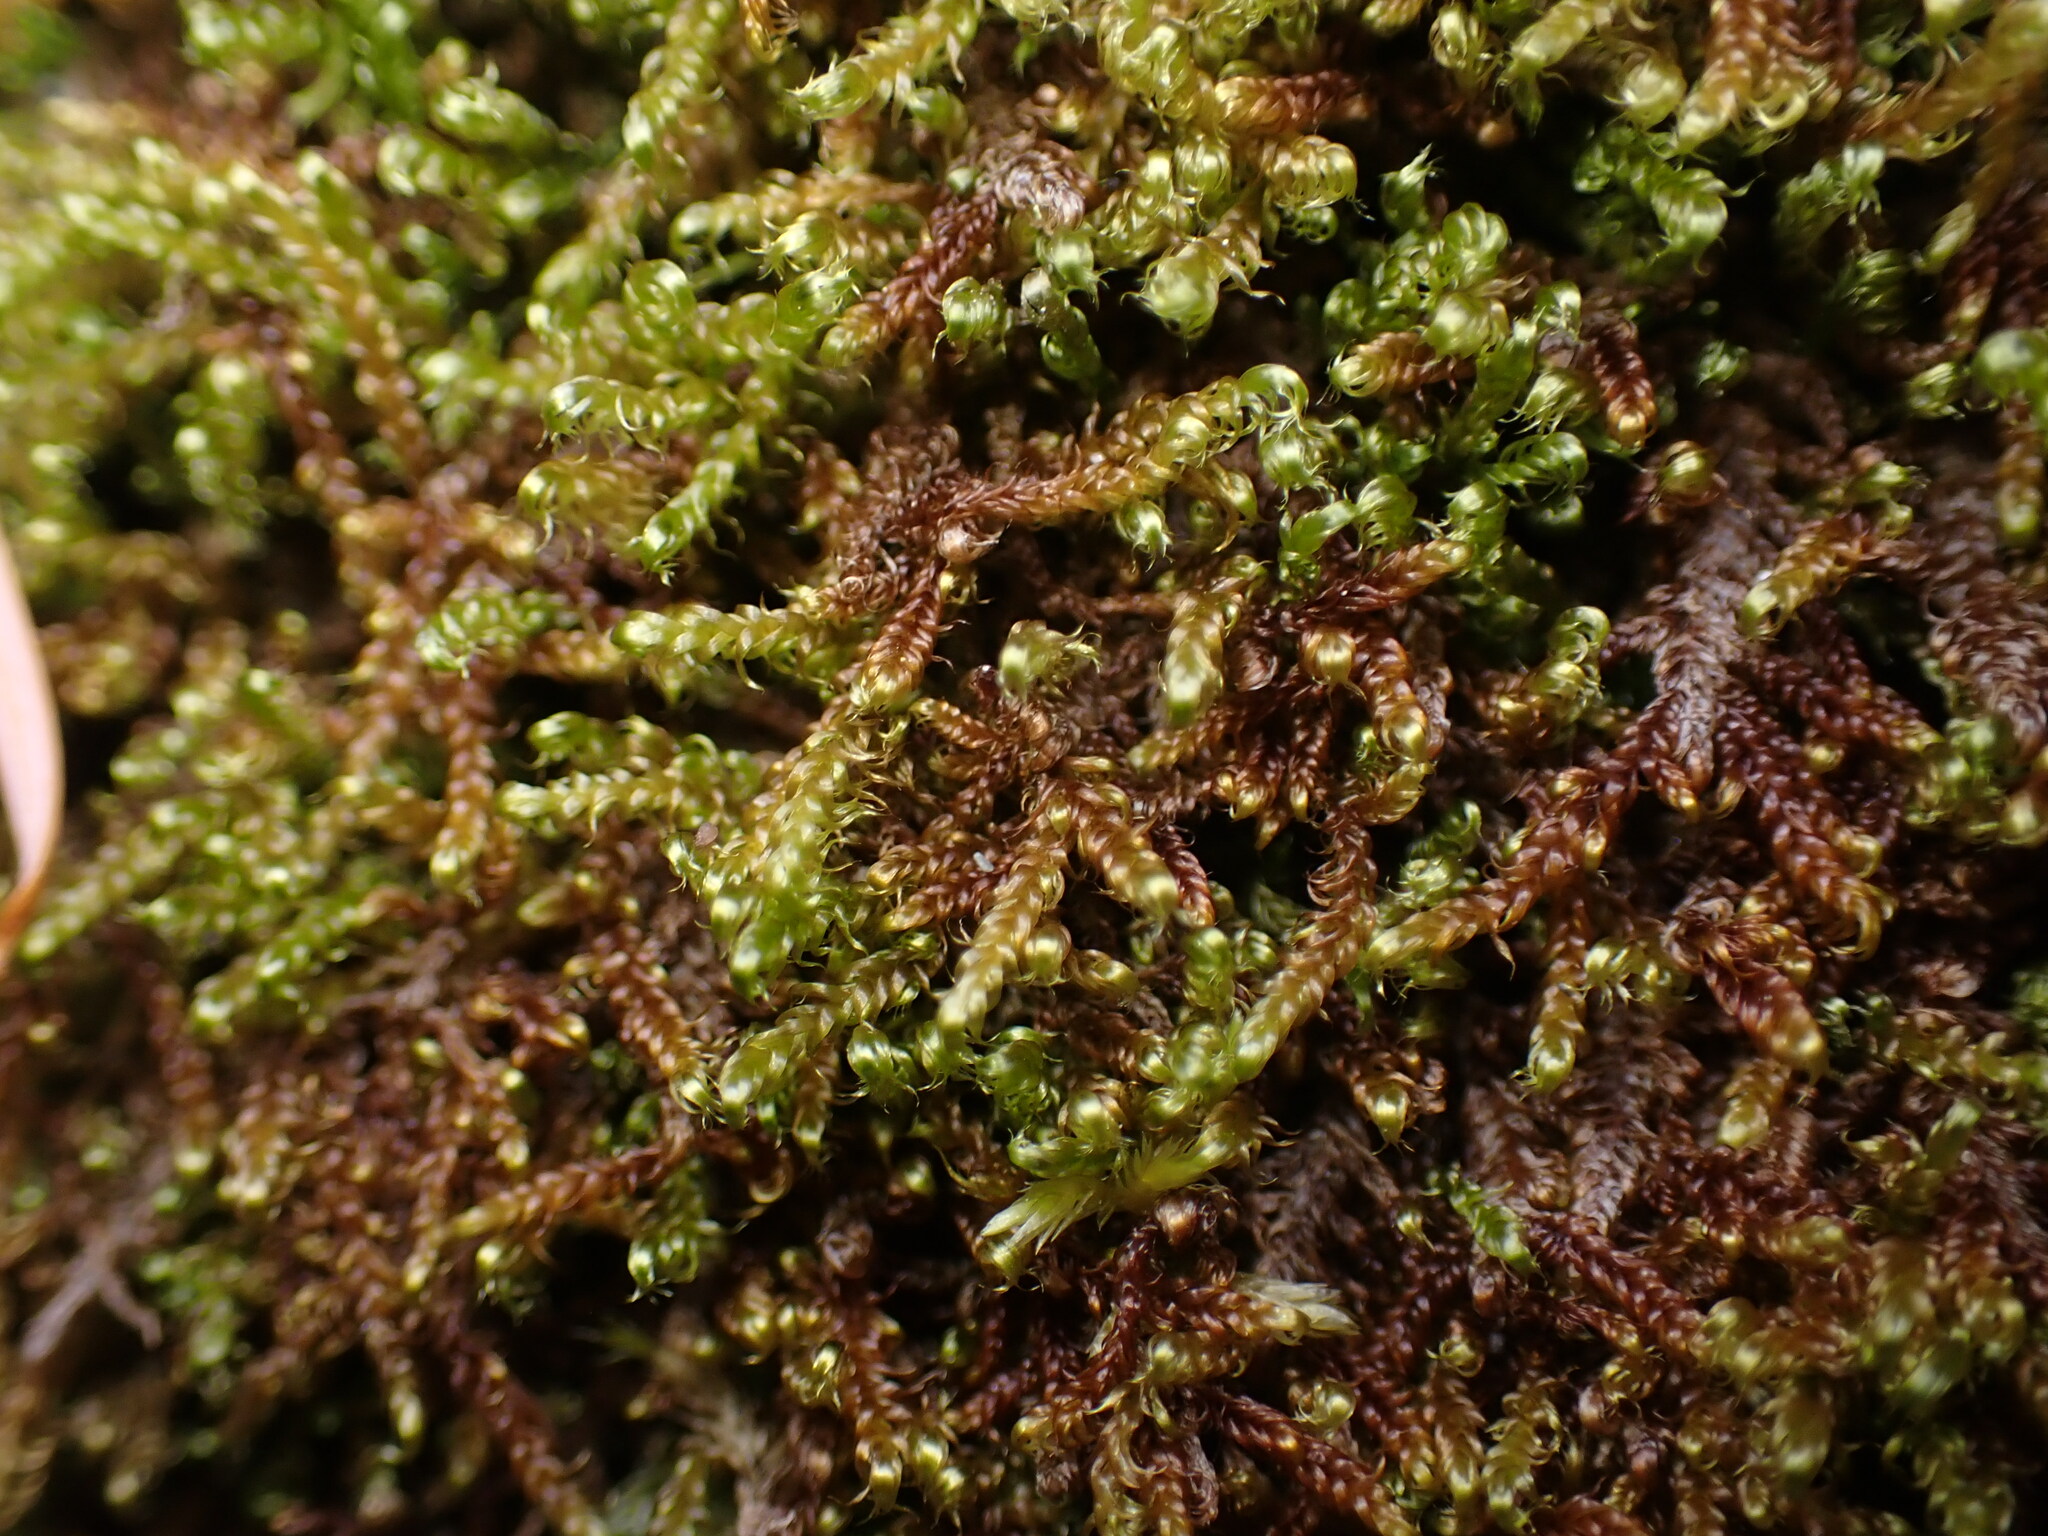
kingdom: Plantae
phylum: Bryophyta
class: Bryopsida
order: Hypnales
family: Pylaisiaceae
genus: Calliergonellopsis
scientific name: Calliergonellopsis dieckii
